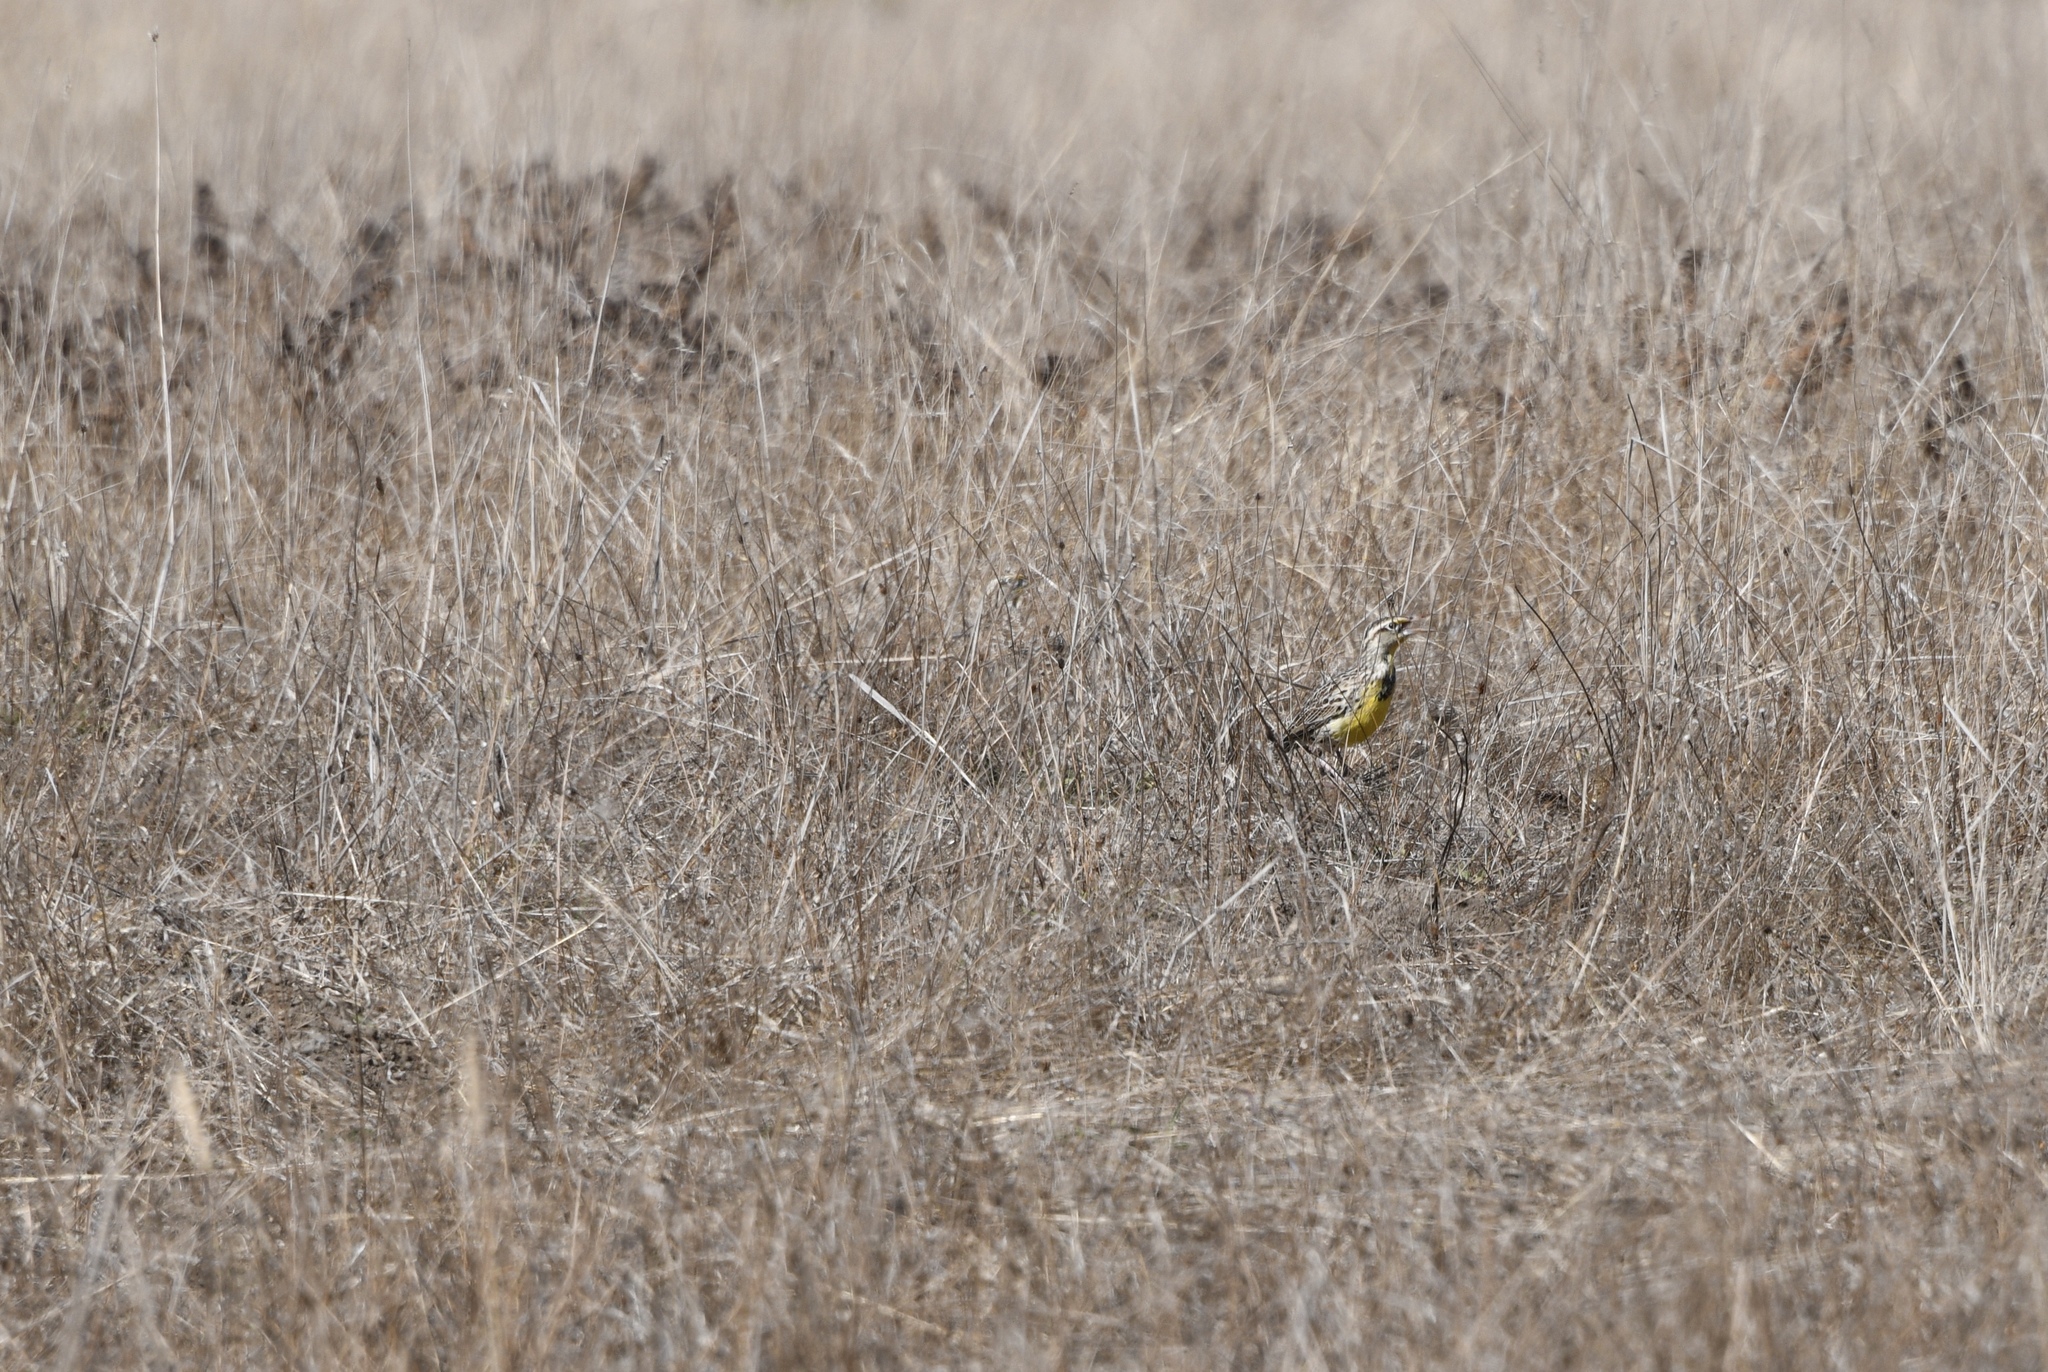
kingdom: Animalia
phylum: Chordata
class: Aves
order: Passeriformes
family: Icteridae
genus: Sturnella
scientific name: Sturnella neglecta
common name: Western meadowlark
